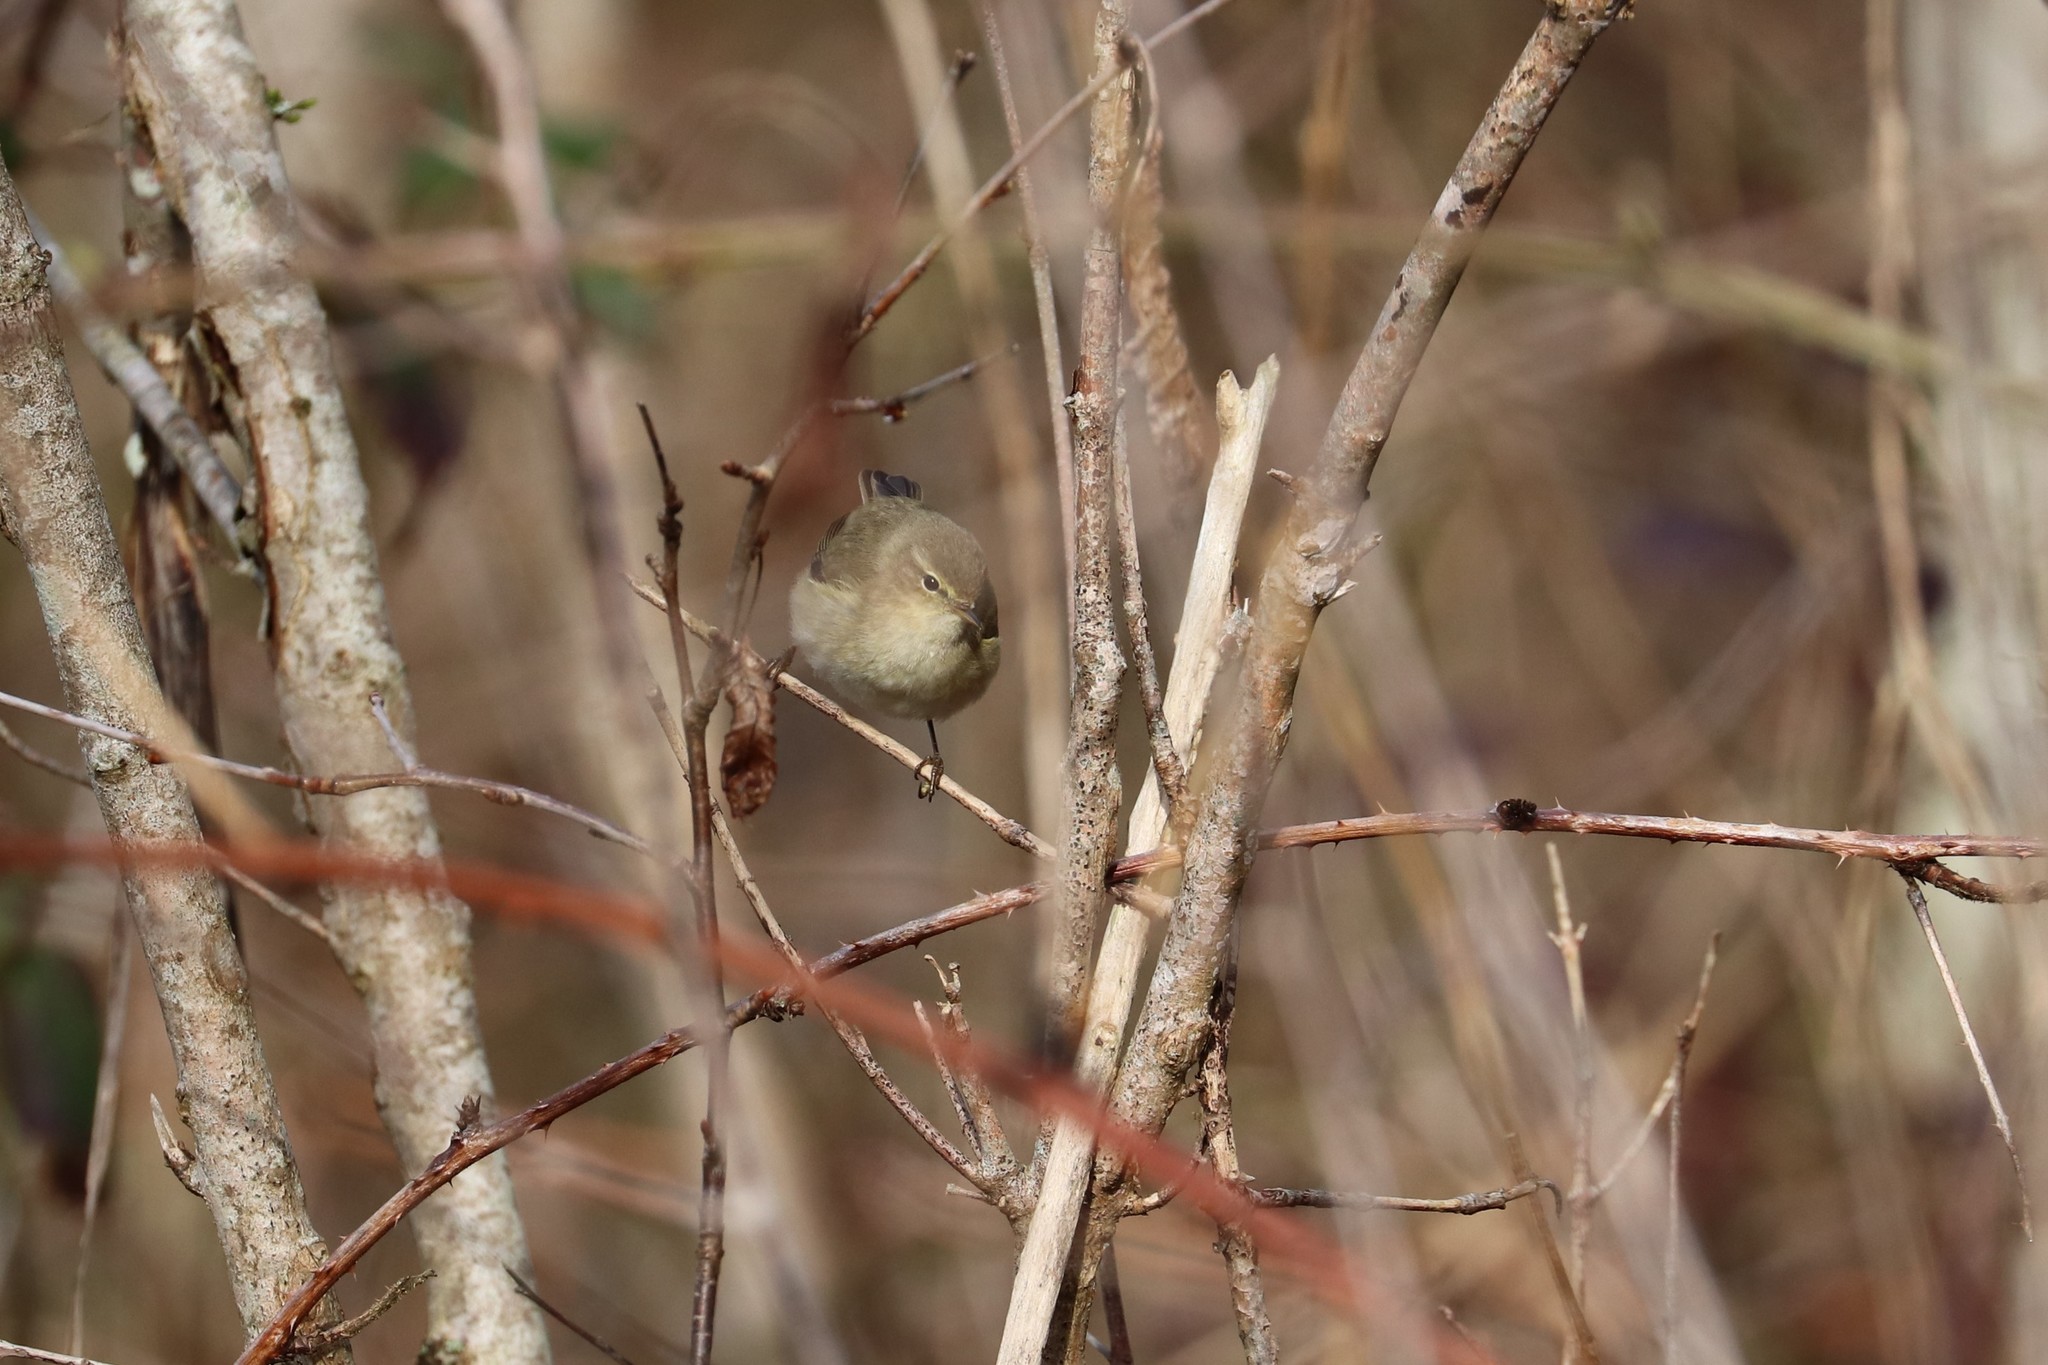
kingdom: Animalia
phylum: Chordata
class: Aves
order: Passeriformes
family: Phylloscopidae
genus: Phylloscopus
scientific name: Phylloscopus collybita
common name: Common chiffchaff
